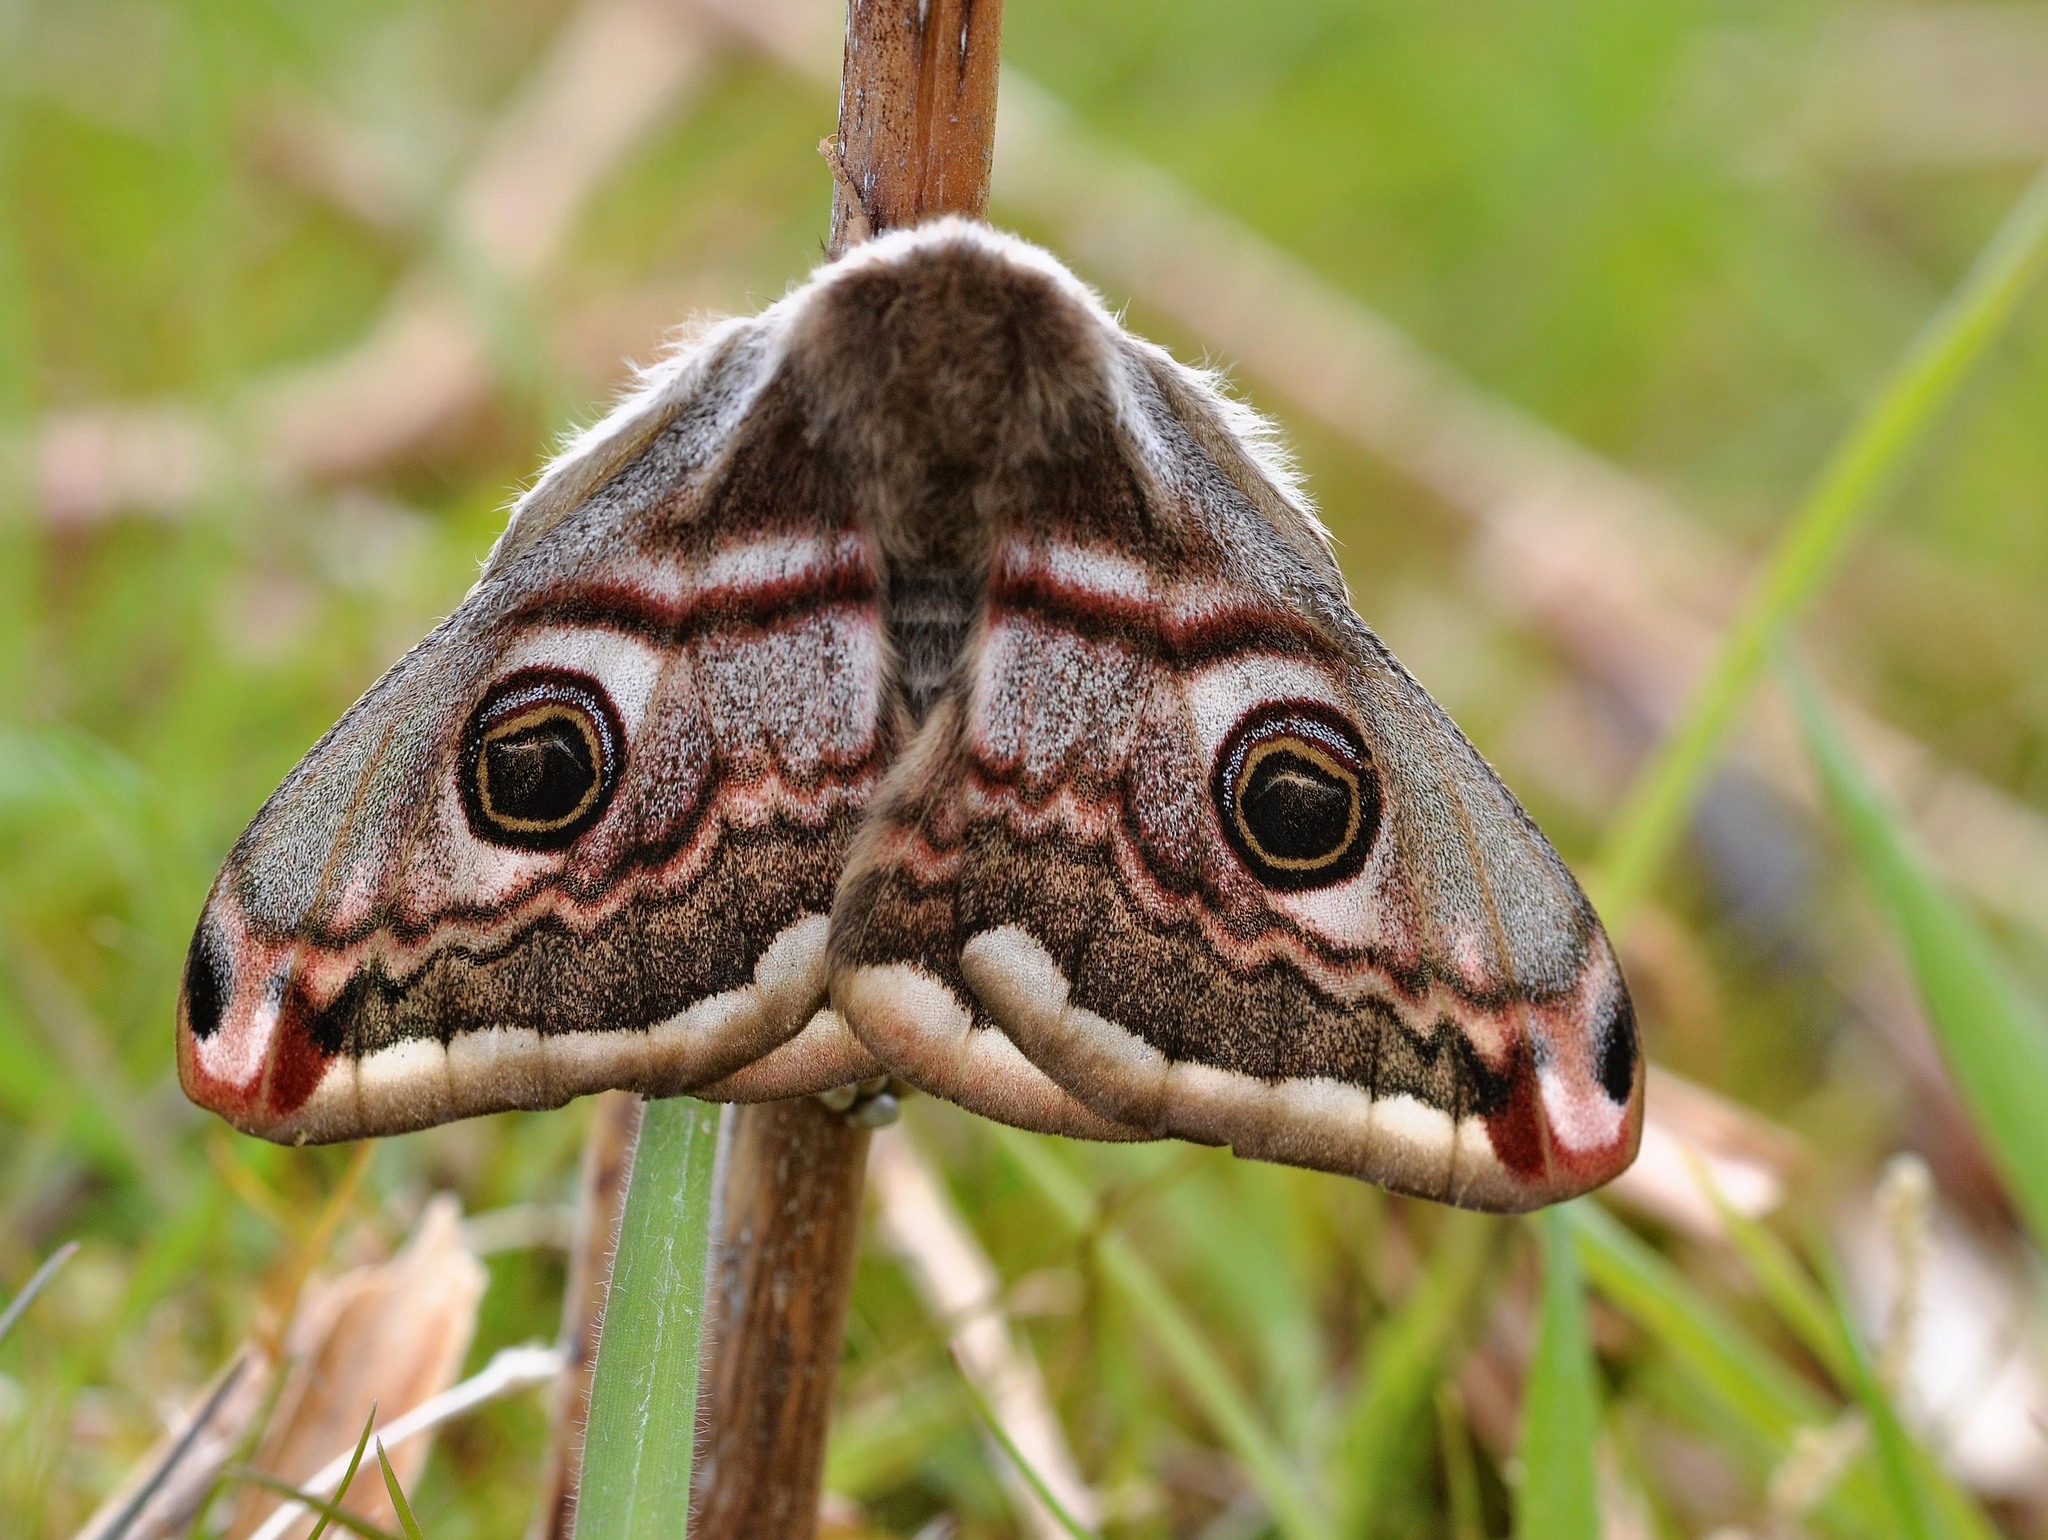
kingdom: Animalia
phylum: Arthropoda
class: Insecta
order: Lepidoptera
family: Saturniidae
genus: Saturnia
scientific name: Saturnia pavonia
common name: Emperor moth
